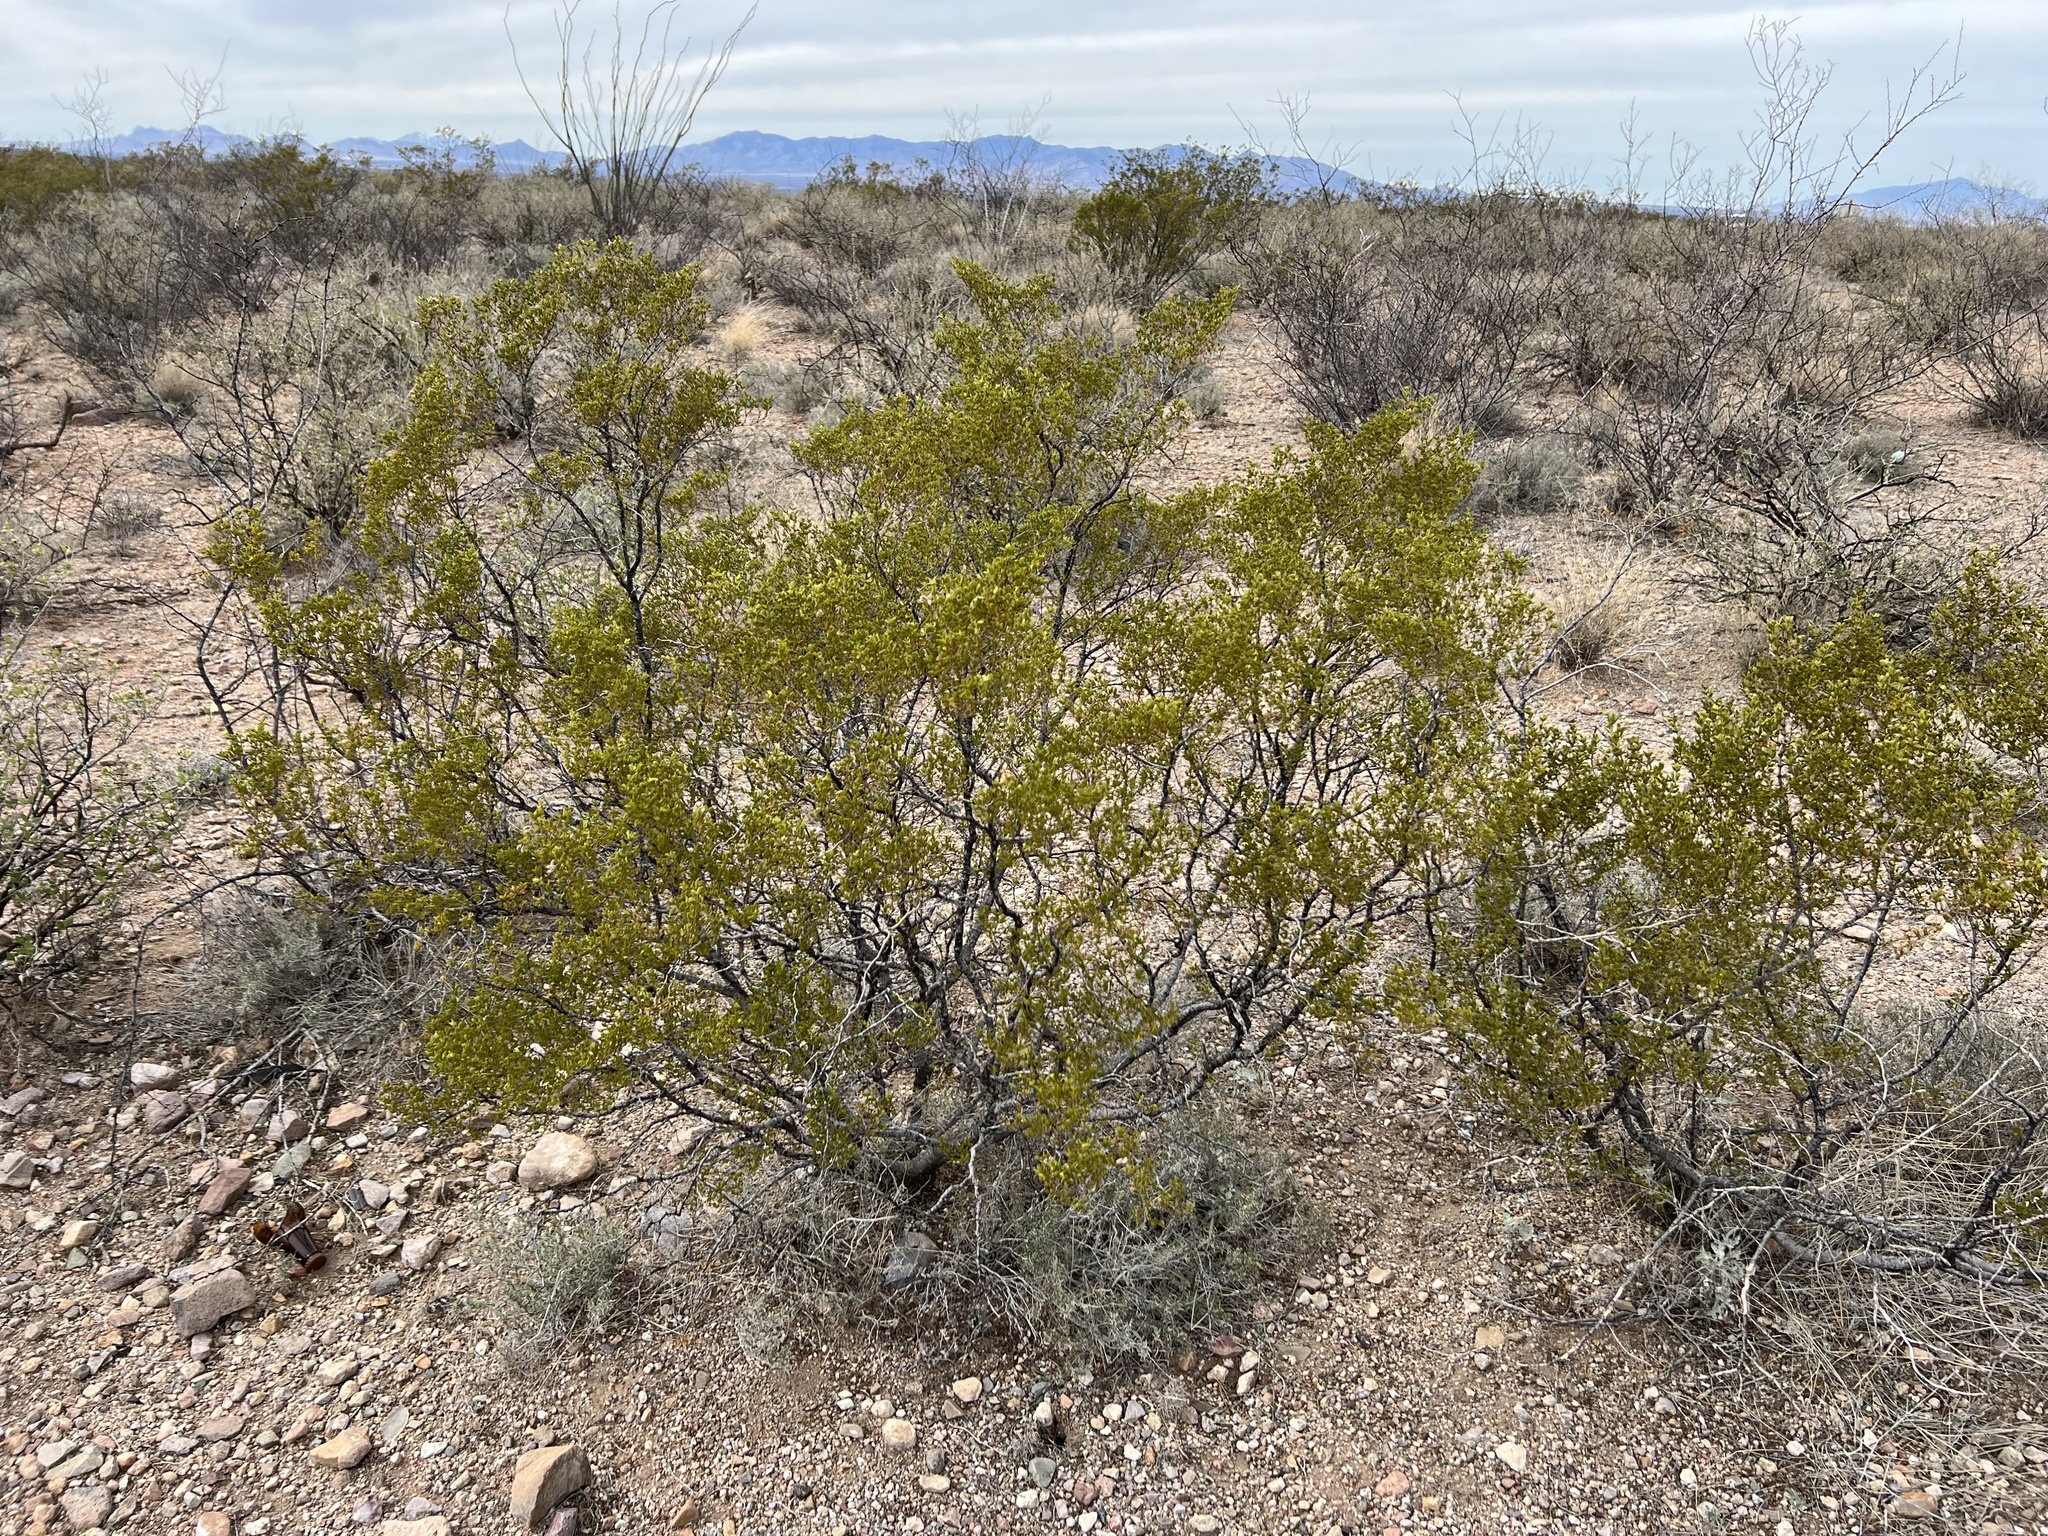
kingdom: Plantae
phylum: Tracheophyta
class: Magnoliopsida
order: Zygophyllales
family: Zygophyllaceae
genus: Larrea
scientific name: Larrea tridentata
